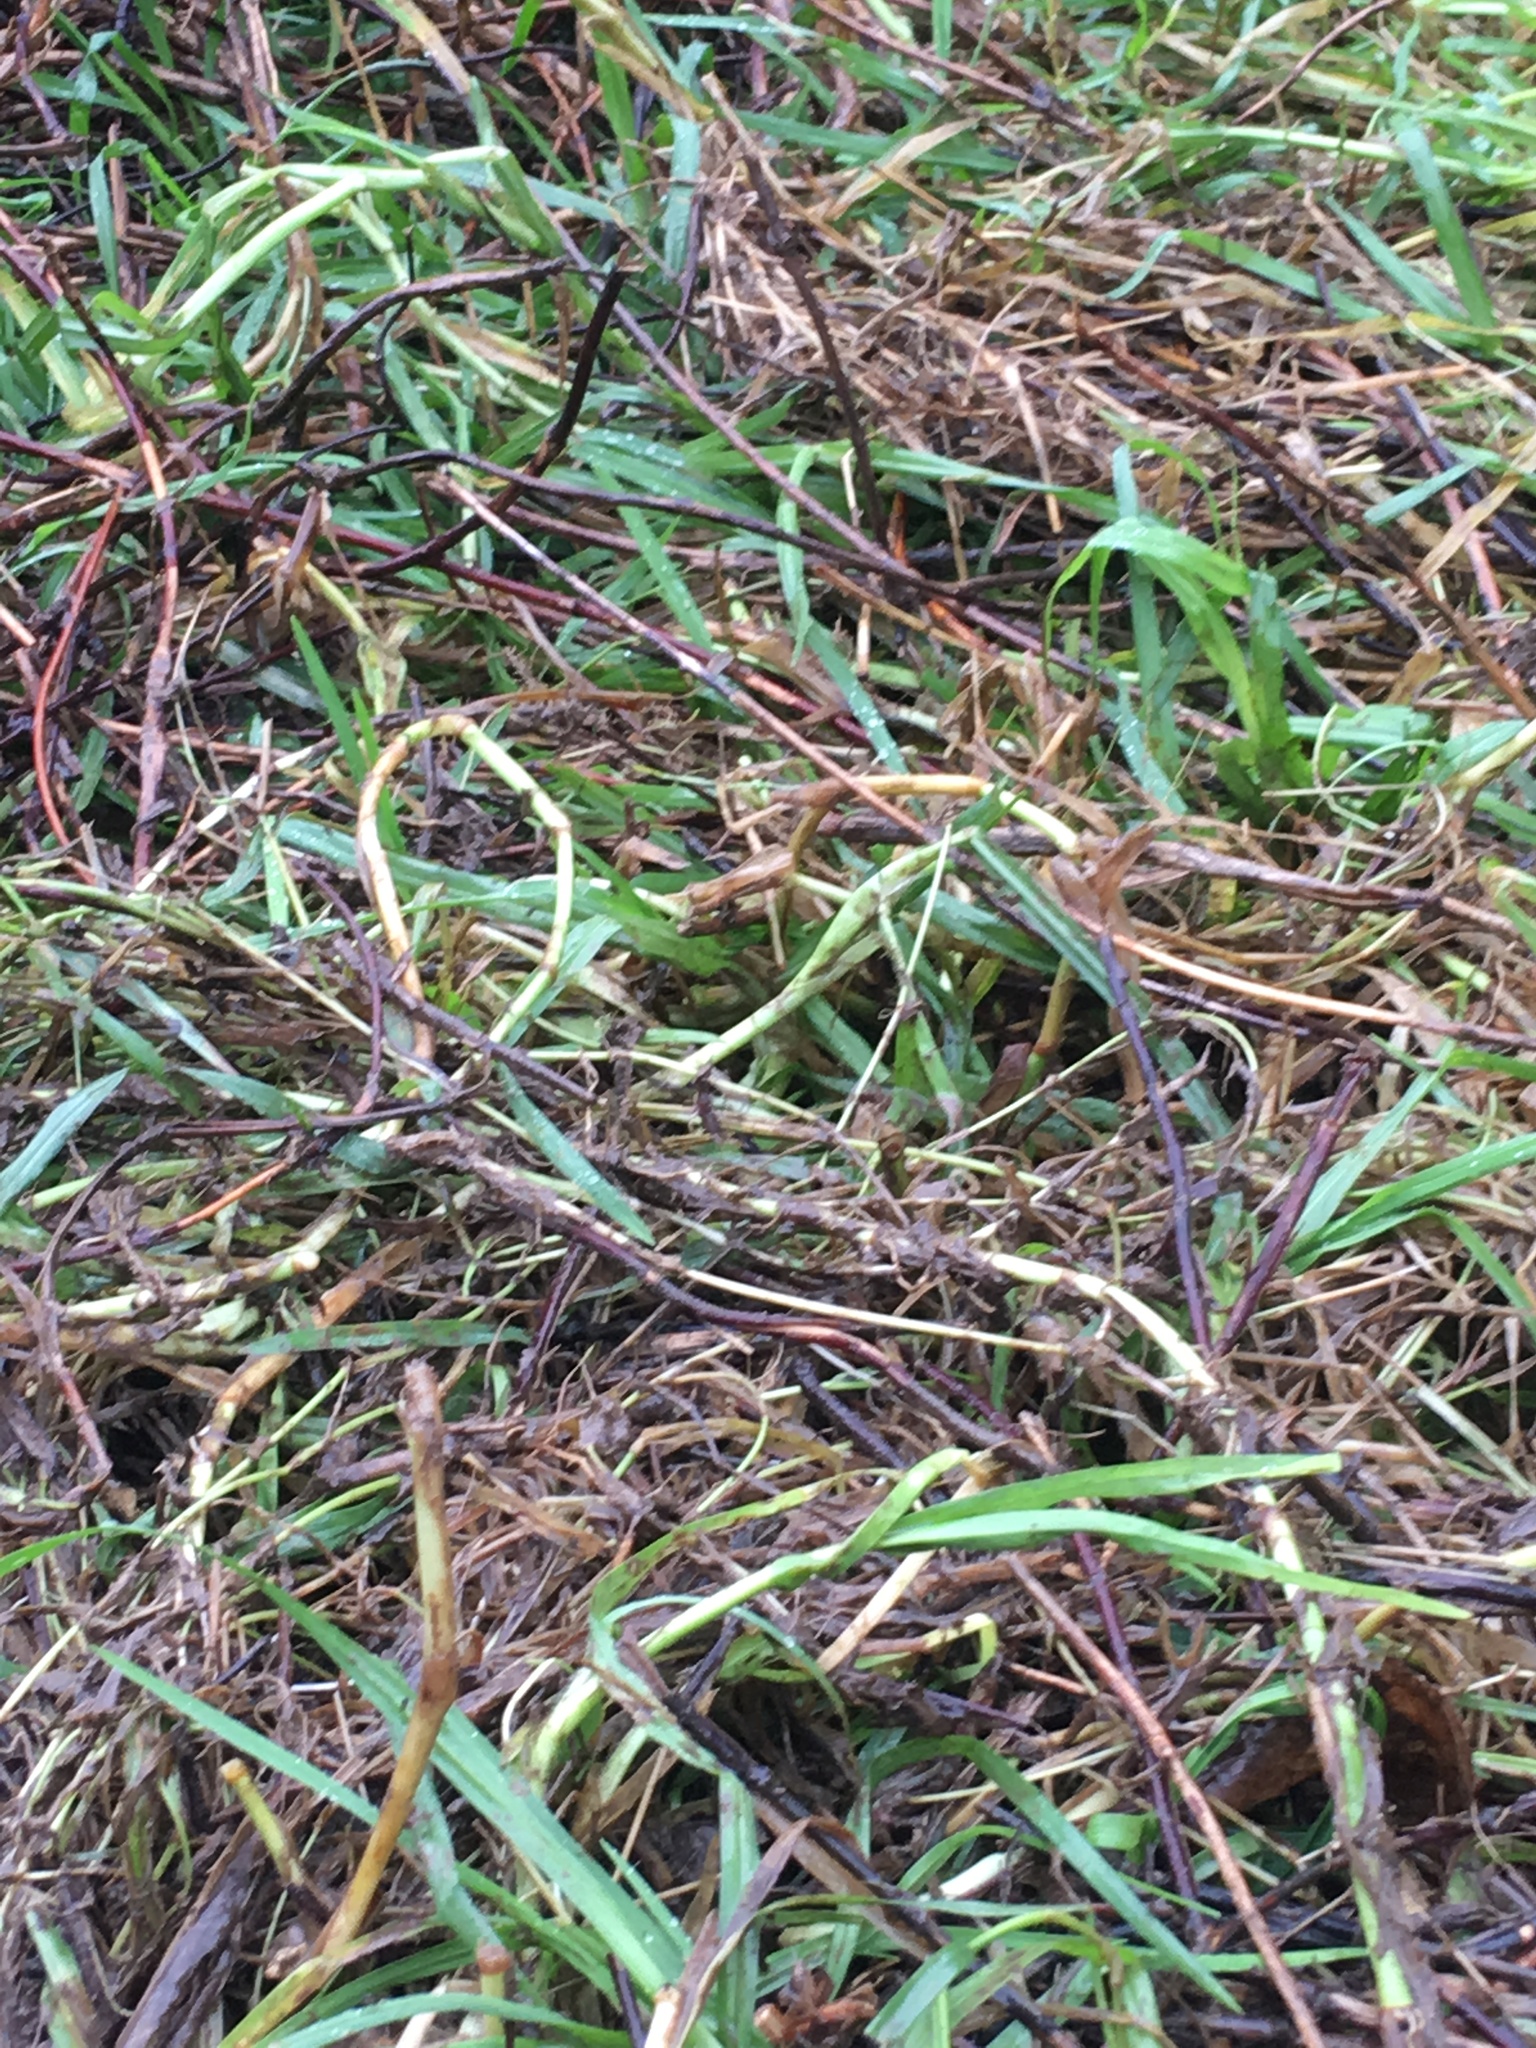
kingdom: Plantae
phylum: Tracheophyta
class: Liliopsida
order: Poales
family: Poaceae
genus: Cenchrus
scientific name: Cenchrus clandestinus
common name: Kikuyugrass
